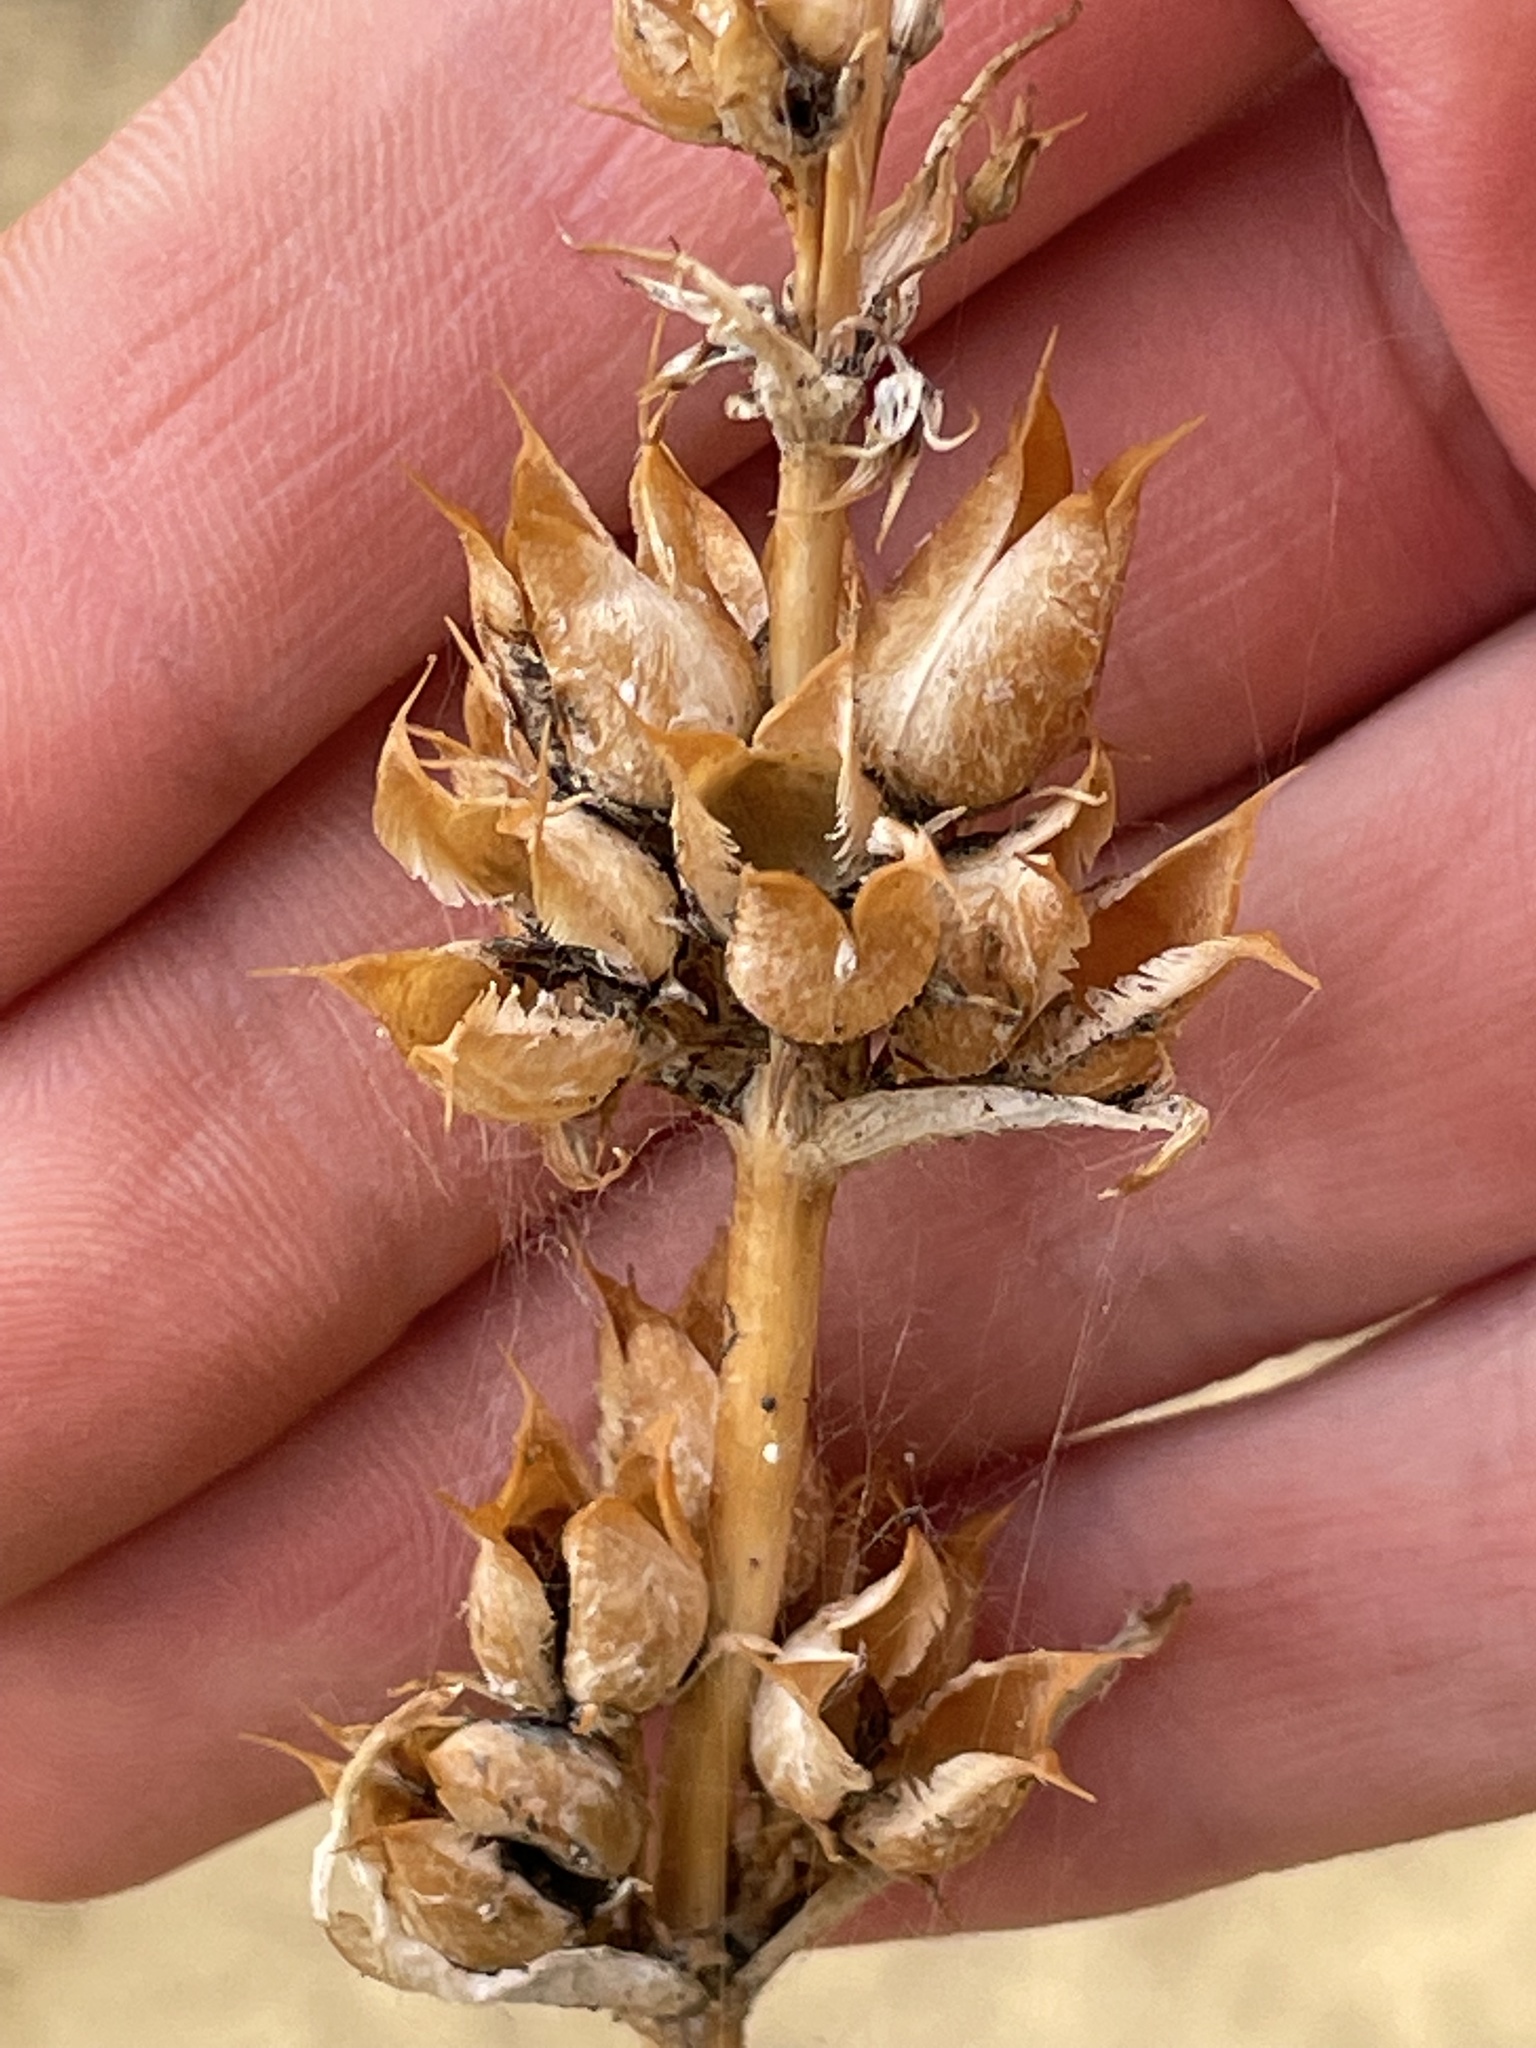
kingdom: Plantae
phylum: Tracheophyta
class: Magnoliopsida
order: Lamiales
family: Plantaginaceae
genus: Penstemon
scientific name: Penstemon angustifolius
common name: Narrow beardtongue
